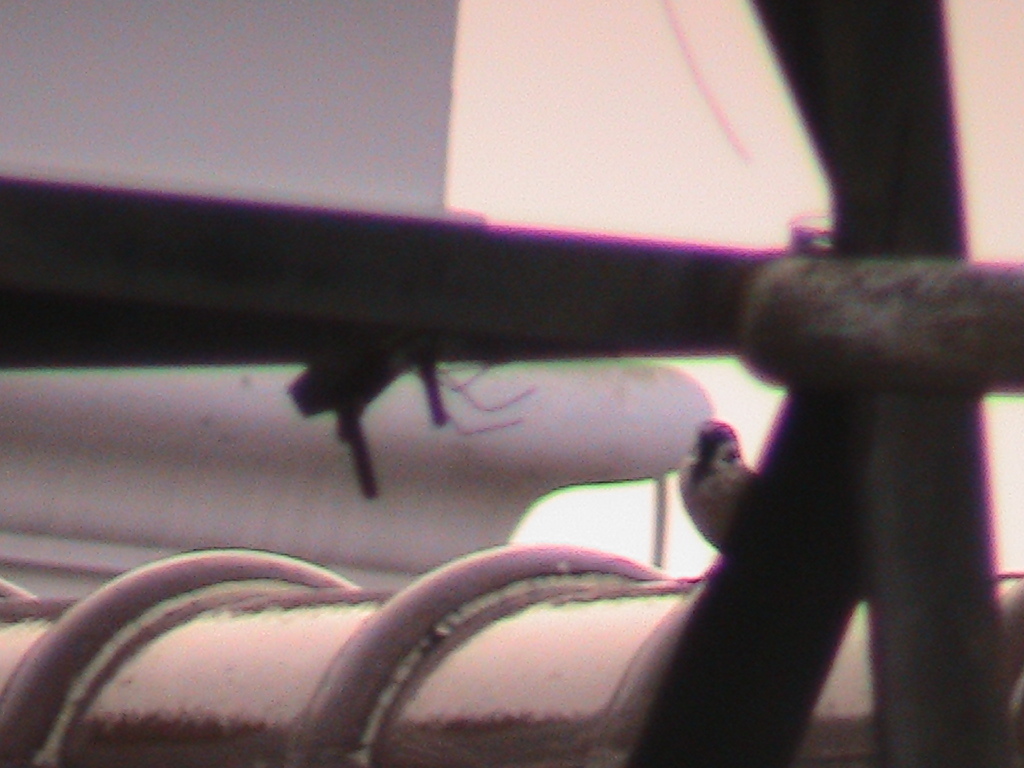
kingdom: Animalia
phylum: Chordata
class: Aves
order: Passeriformes
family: Passeridae
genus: Passer
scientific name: Passer montanus
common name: Eurasian tree sparrow
